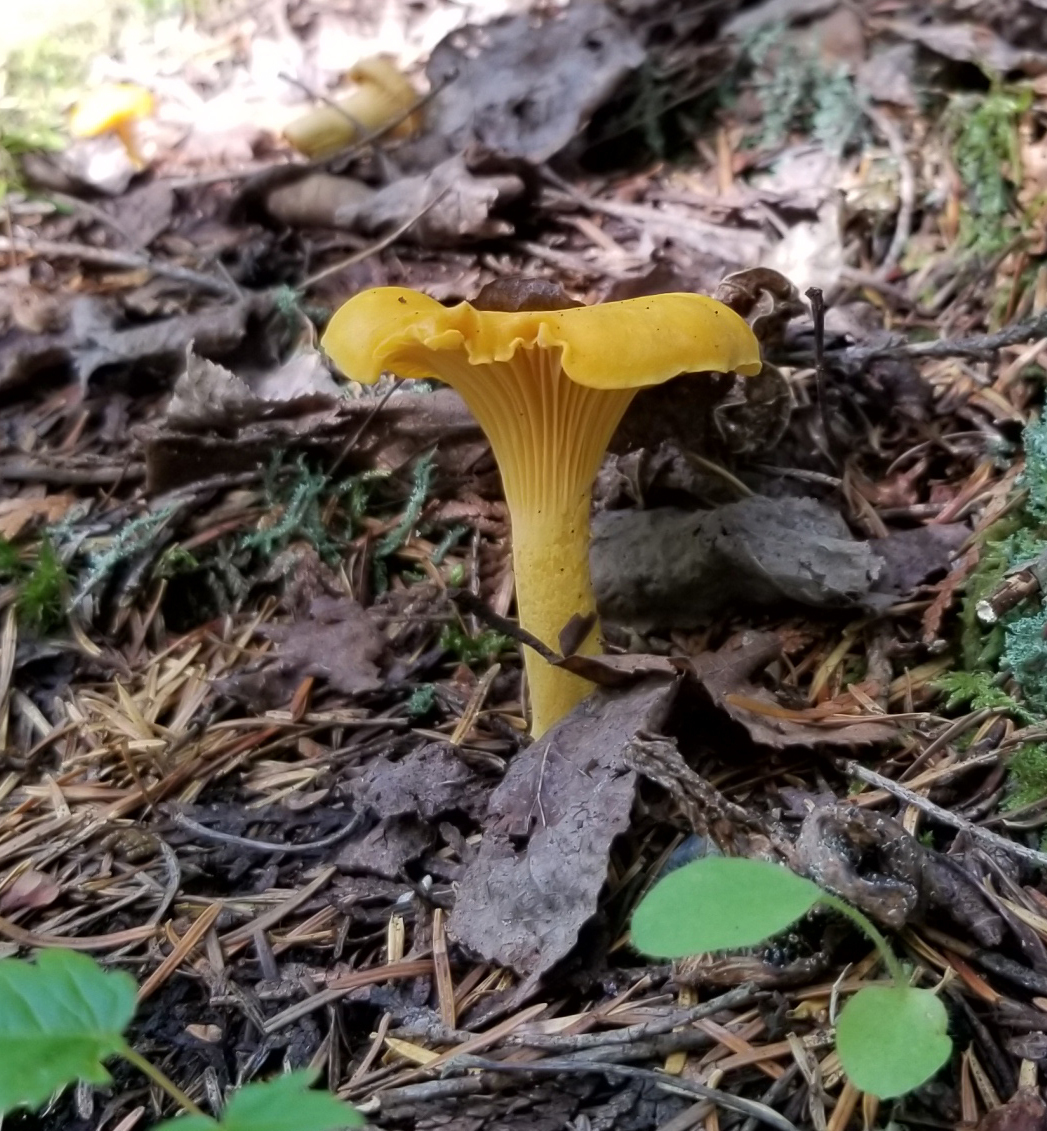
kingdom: Fungi
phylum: Basidiomycota
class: Agaricomycetes
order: Cantharellales
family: Hydnaceae
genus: Cantharellus
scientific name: Cantharellus enelensis
